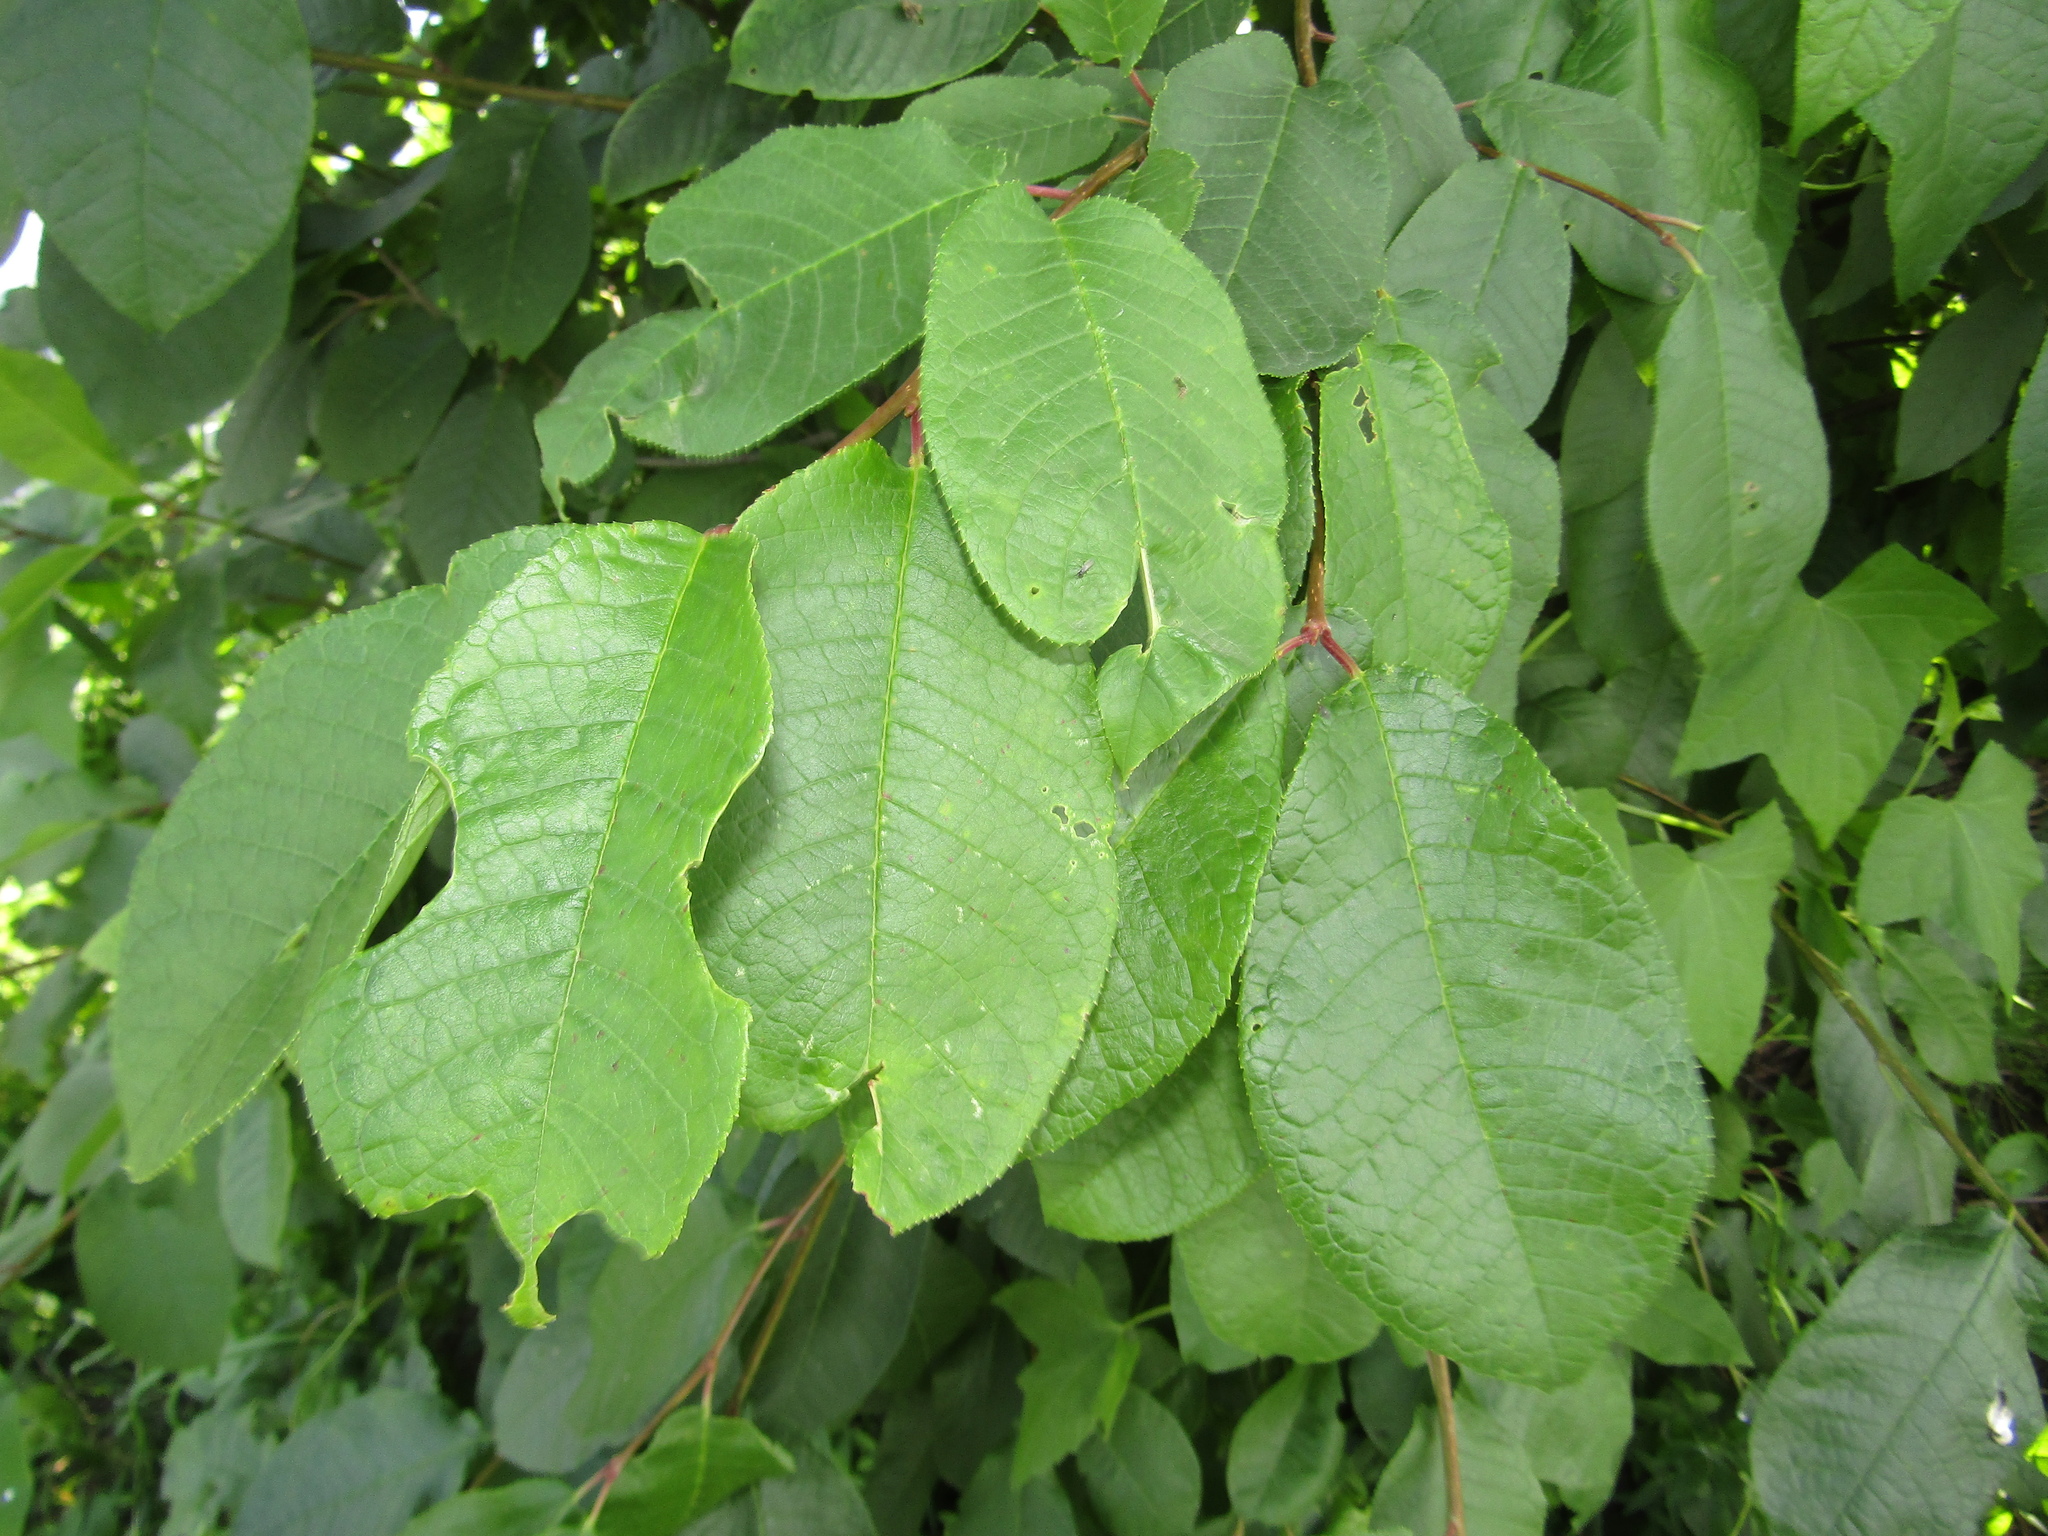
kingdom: Plantae
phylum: Tracheophyta
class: Magnoliopsida
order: Rosales
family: Rosaceae
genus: Prunus
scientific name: Prunus padus
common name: Bird cherry
